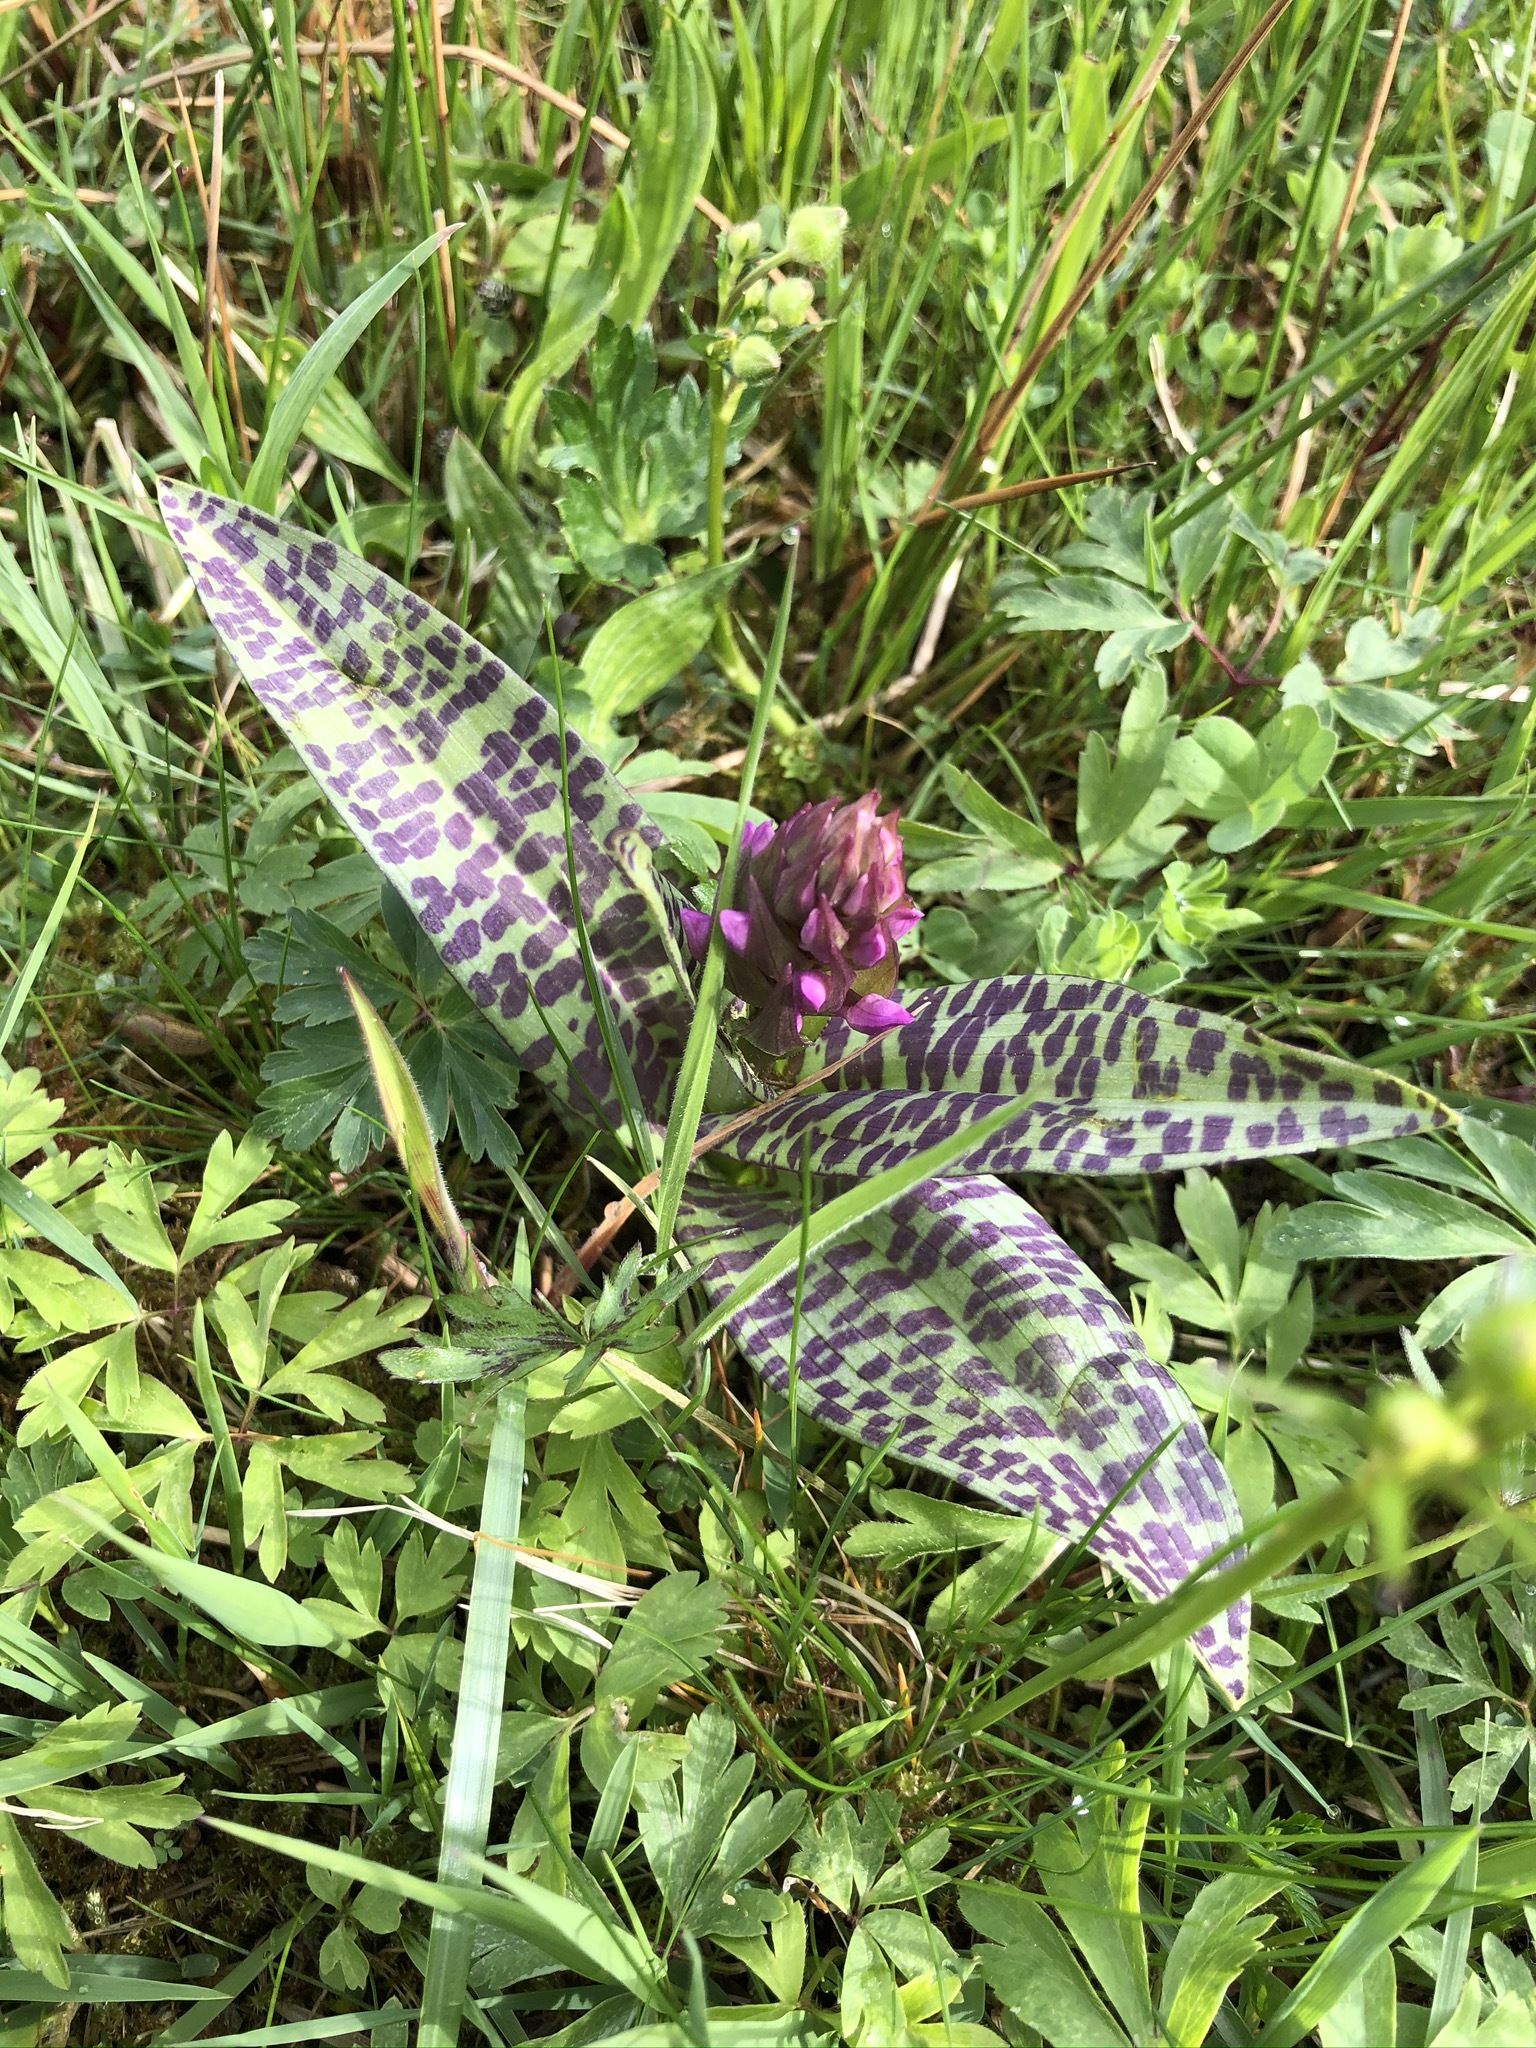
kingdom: Plantae
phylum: Tracheophyta
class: Liliopsida
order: Asparagales
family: Orchidaceae
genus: Dactylorhiza
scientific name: Dactylorhiza majalis
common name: Marsh orchid
